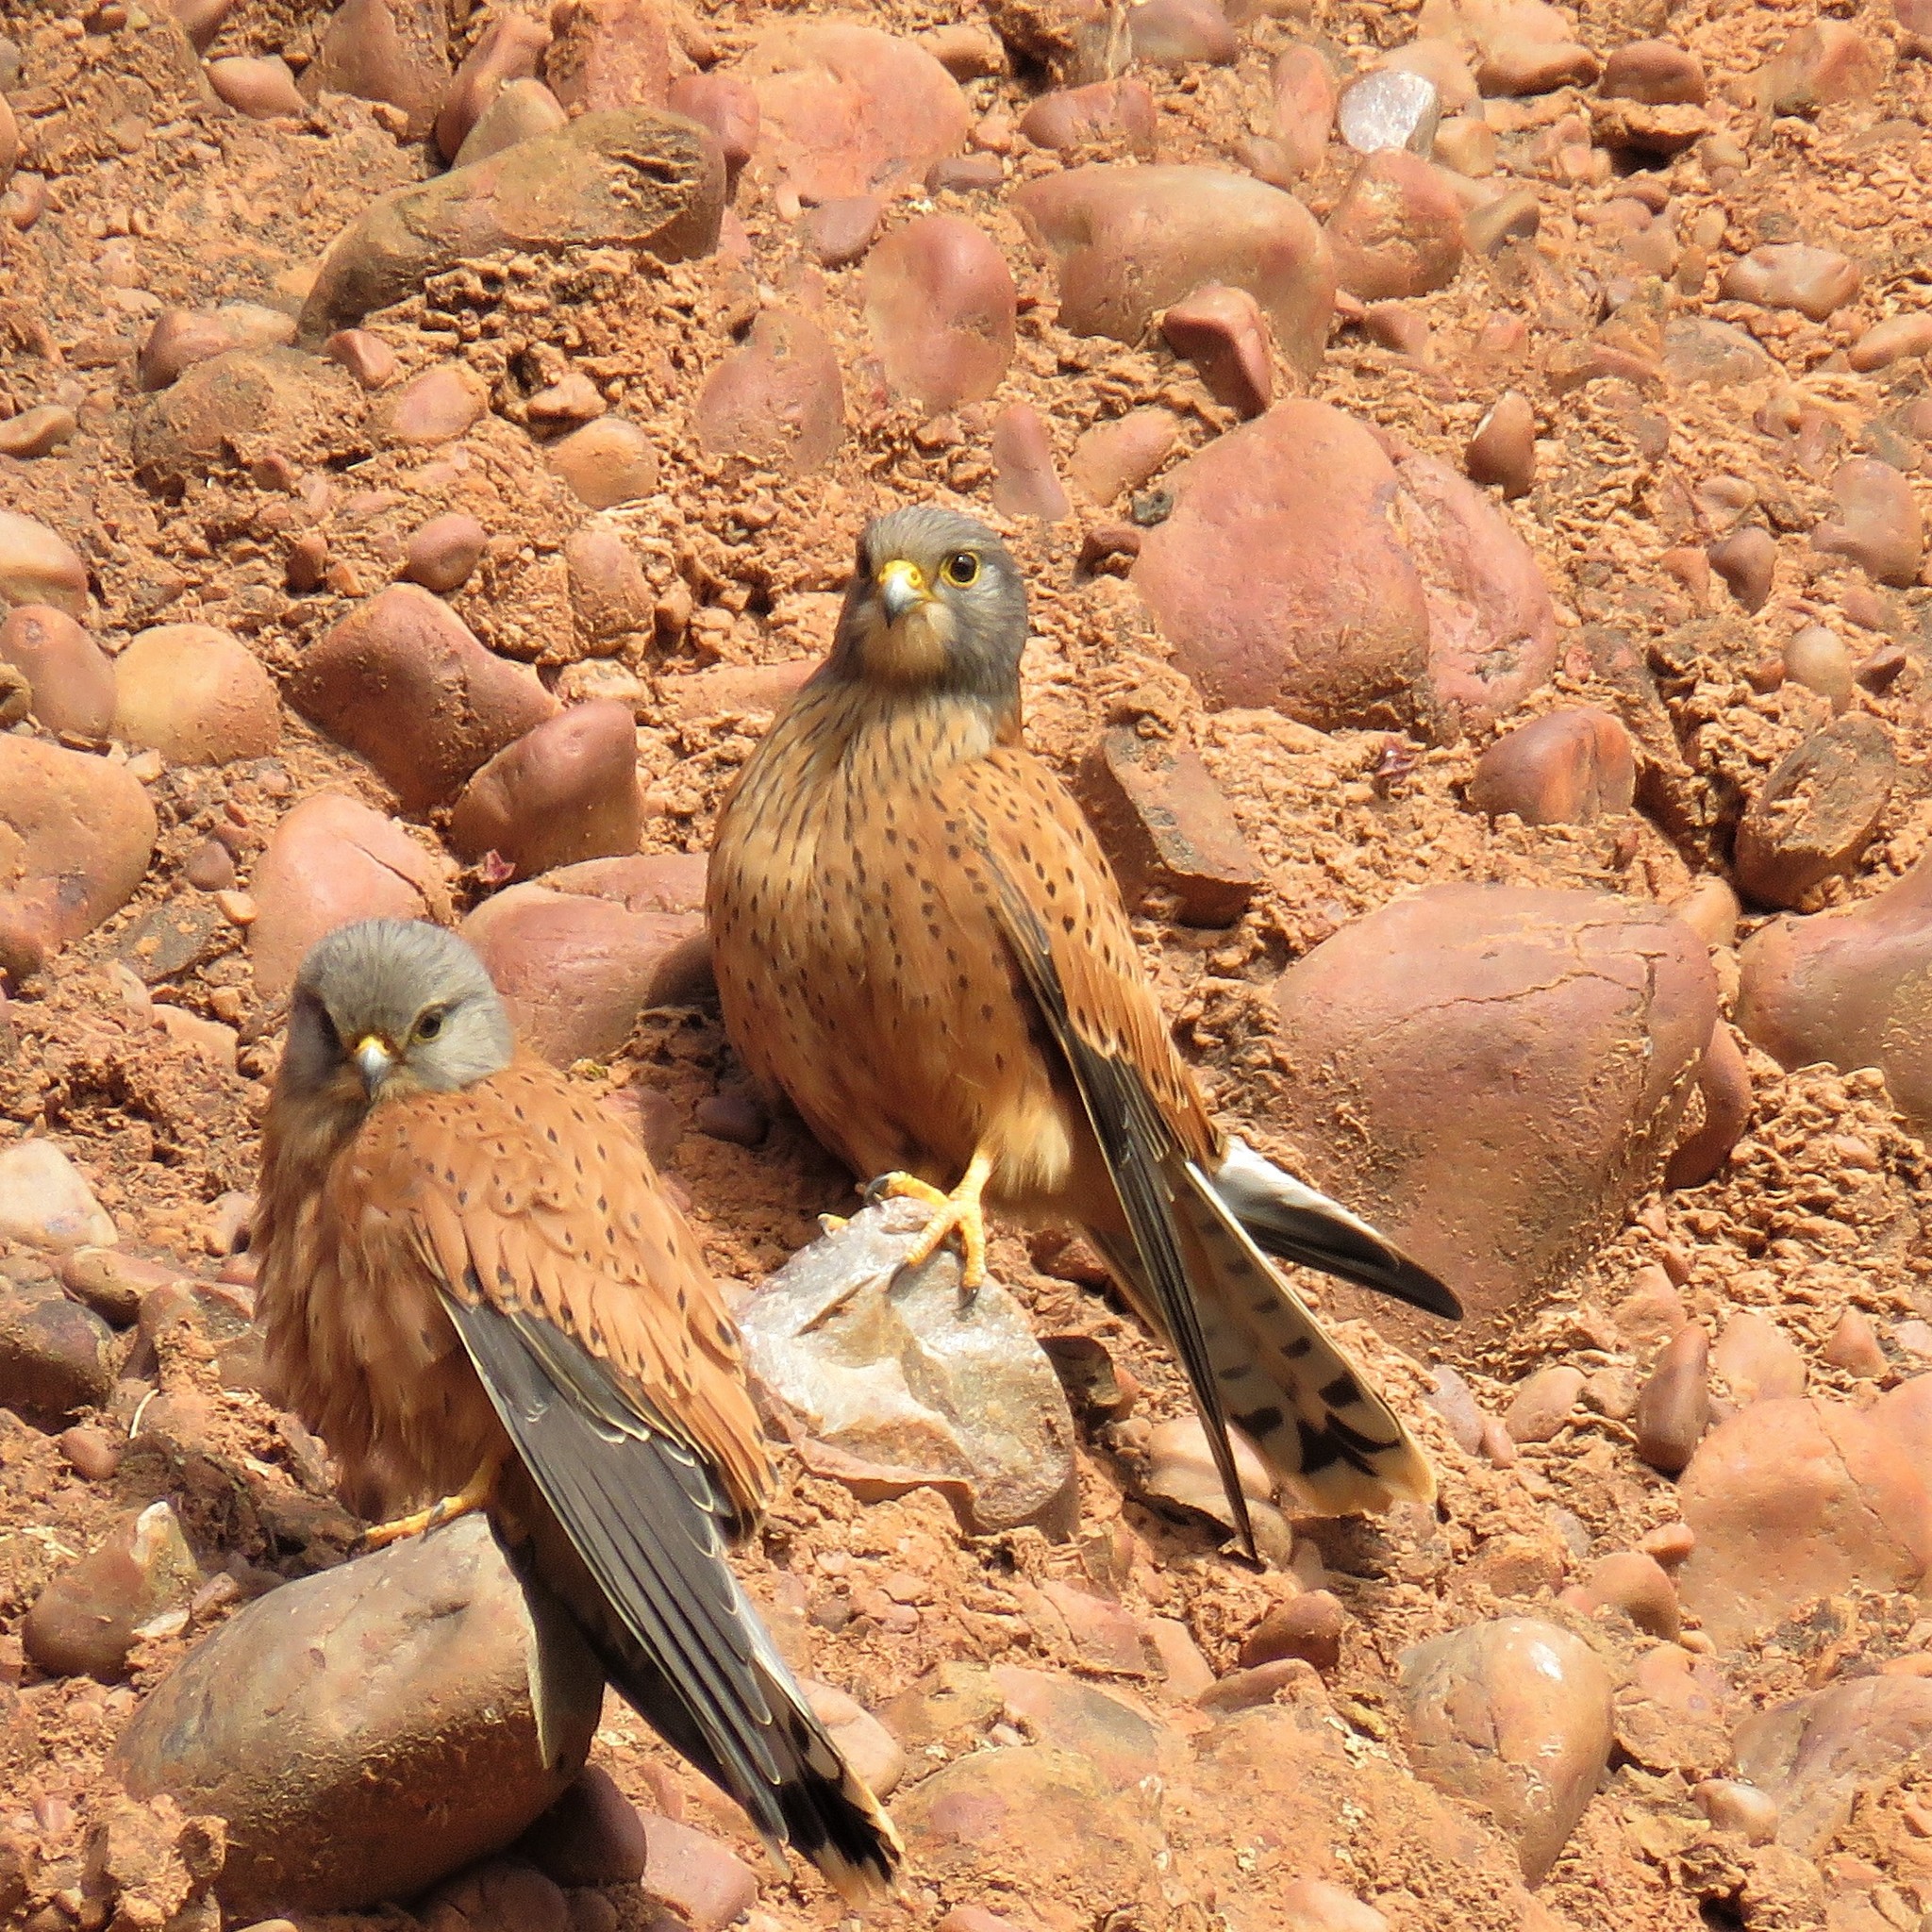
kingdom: Animalia
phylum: Chordata
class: Aves
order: Falconiformes
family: Falconidae
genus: Falco
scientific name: Falco rupicolus
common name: Rock kestrel
